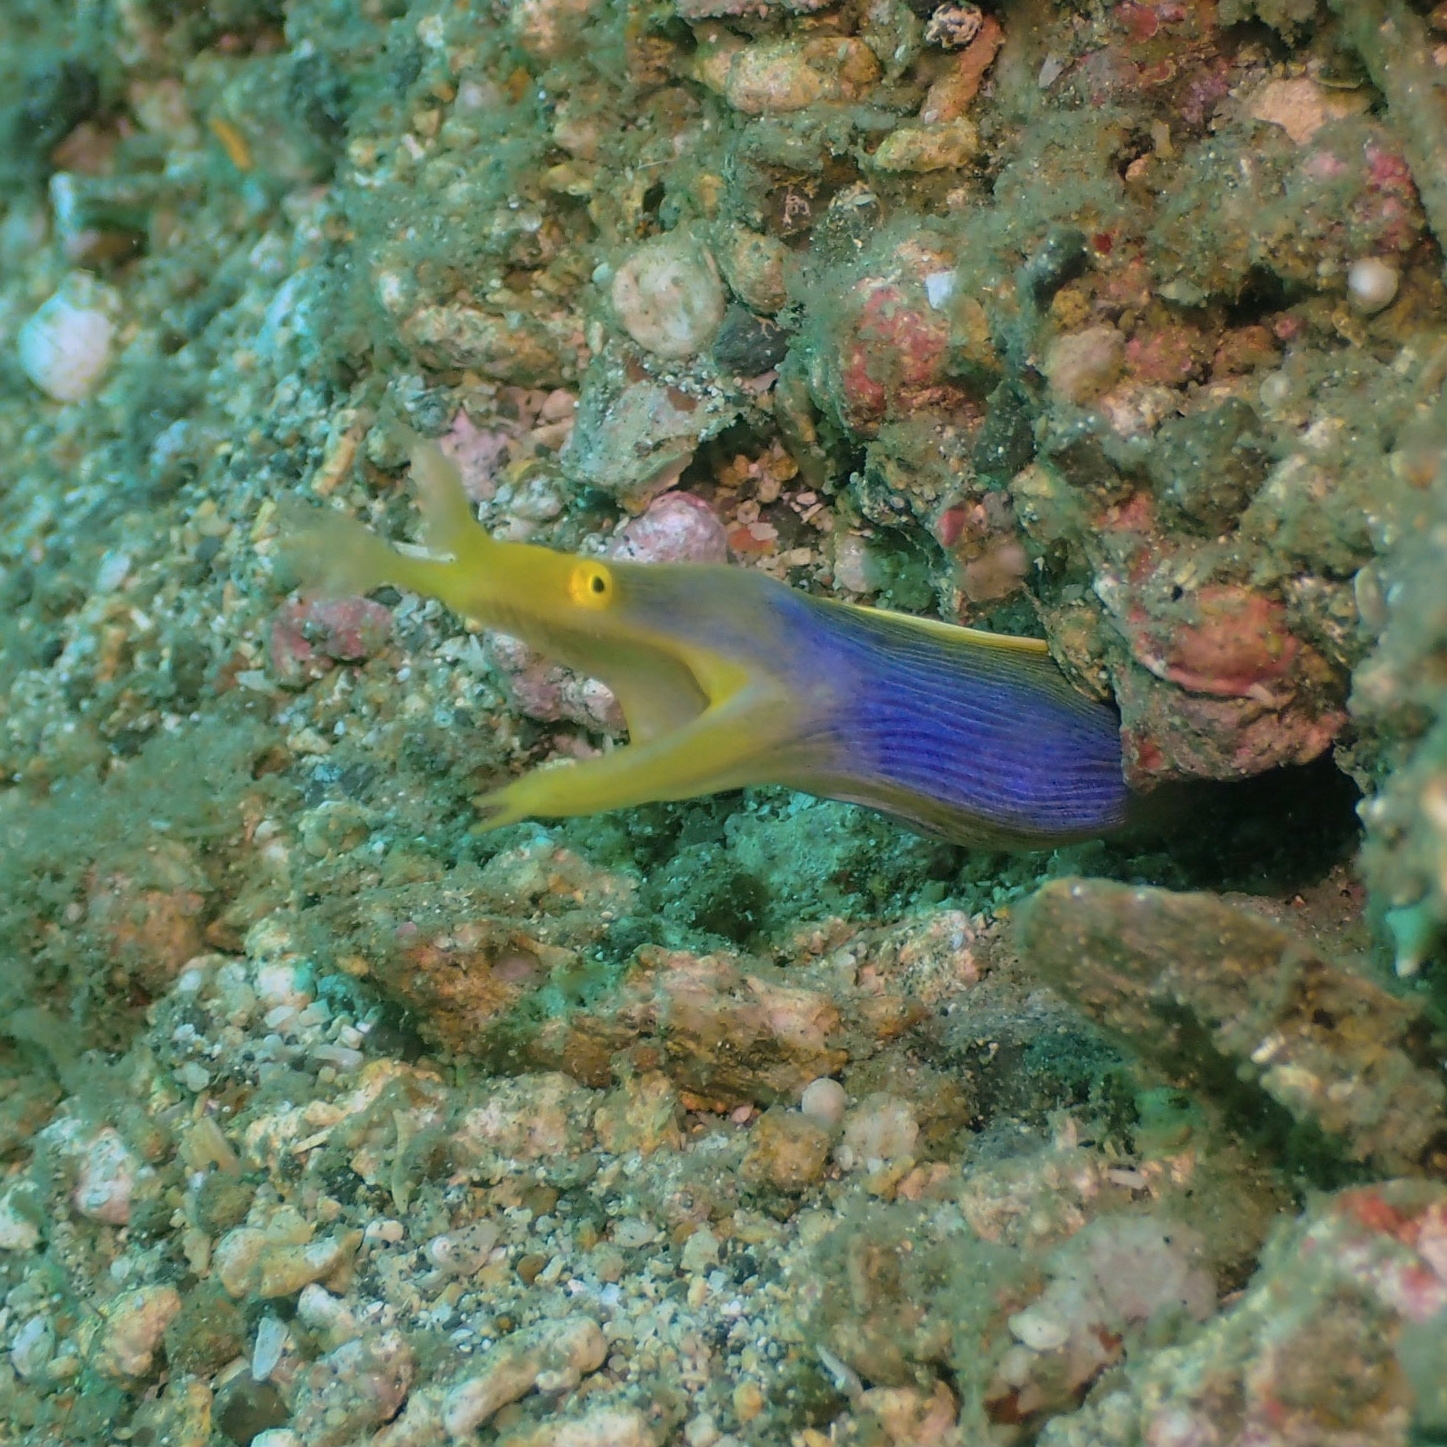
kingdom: Animalia
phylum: Chordata
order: Anguilliformes
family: Muraenidae
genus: Rhinomuraena
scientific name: Rhinomuraena quaesita
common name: Ribbon eel
